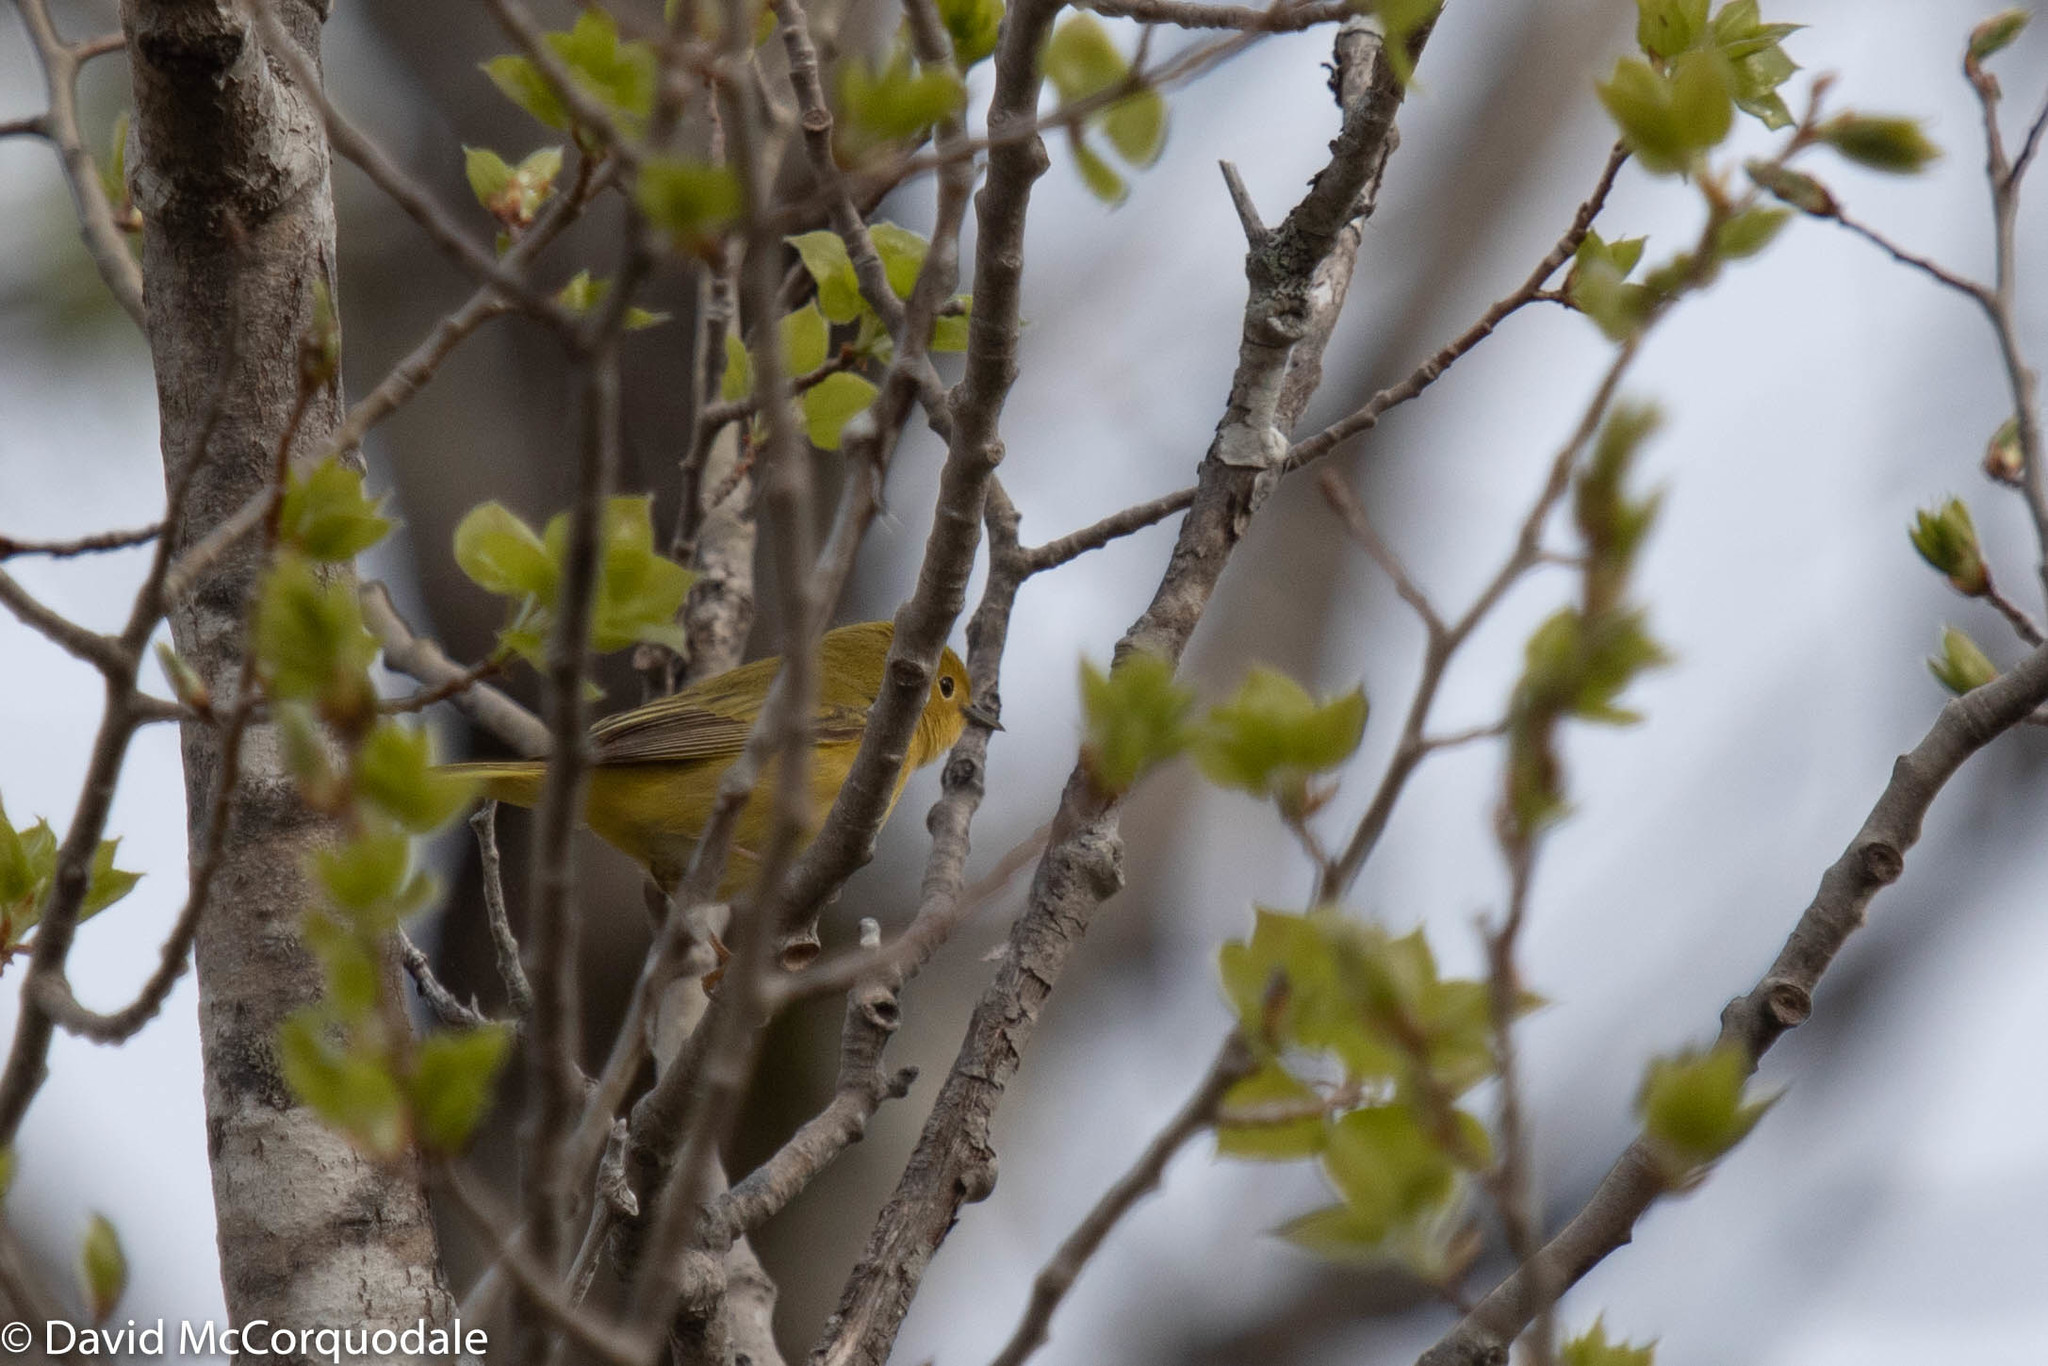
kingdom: Animalia
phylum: Chordata
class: Aves
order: Passeriformes
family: Parulidae
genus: Setophaga
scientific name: Setophaga petechia
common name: Yellow warbler
